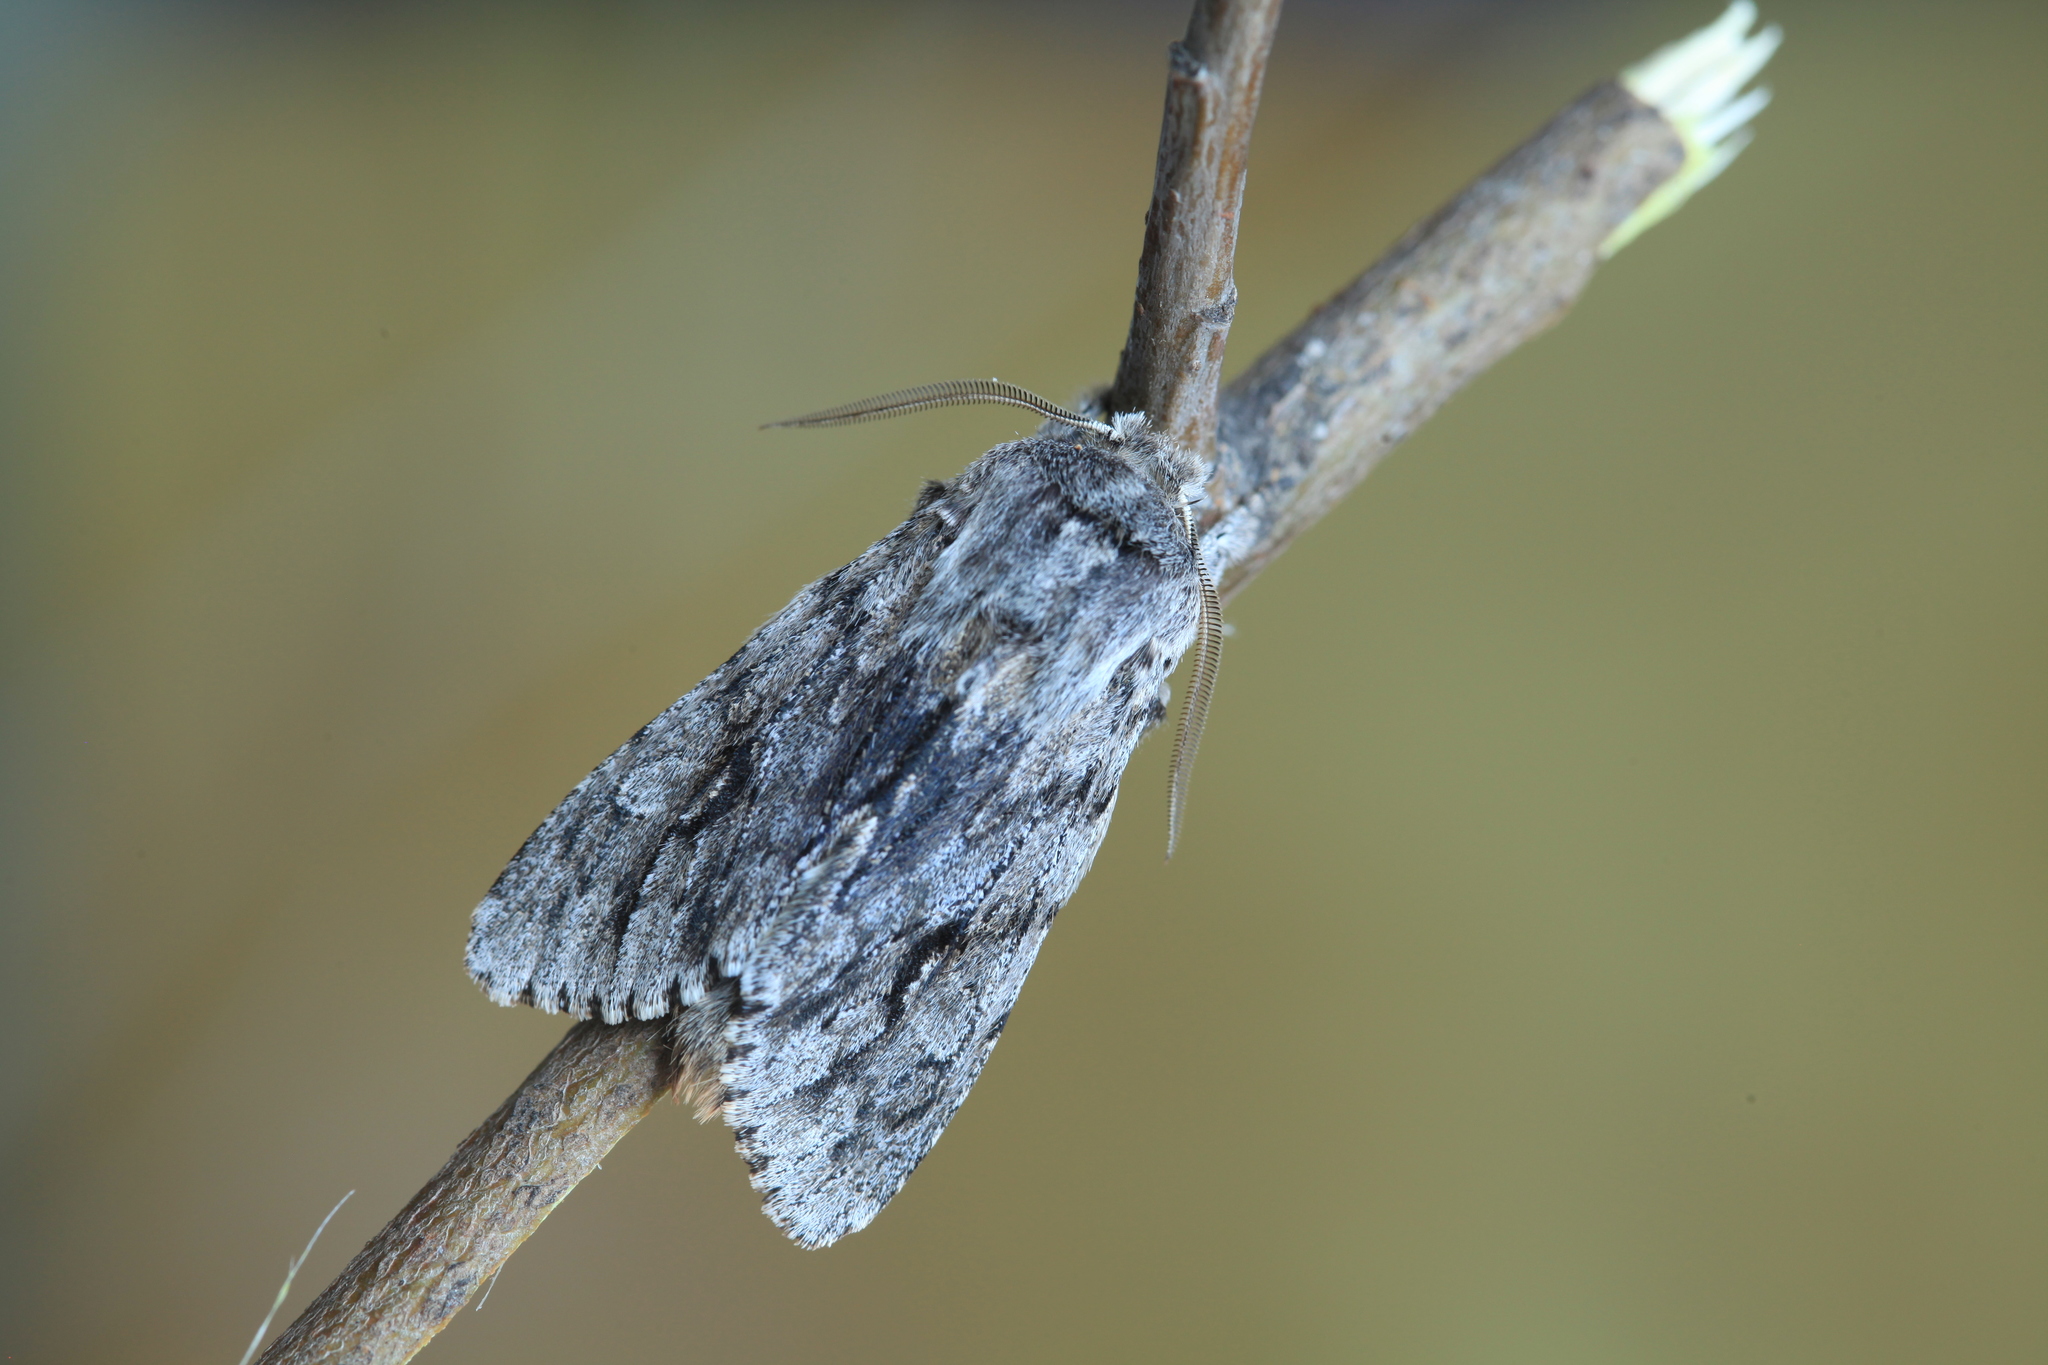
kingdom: Animalia
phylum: Arthropoda
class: Insecta
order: Lepidoptera
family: Noctuidae
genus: Brachionycha
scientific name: Brachionycha nubeculosa
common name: Rannoch sprawler
